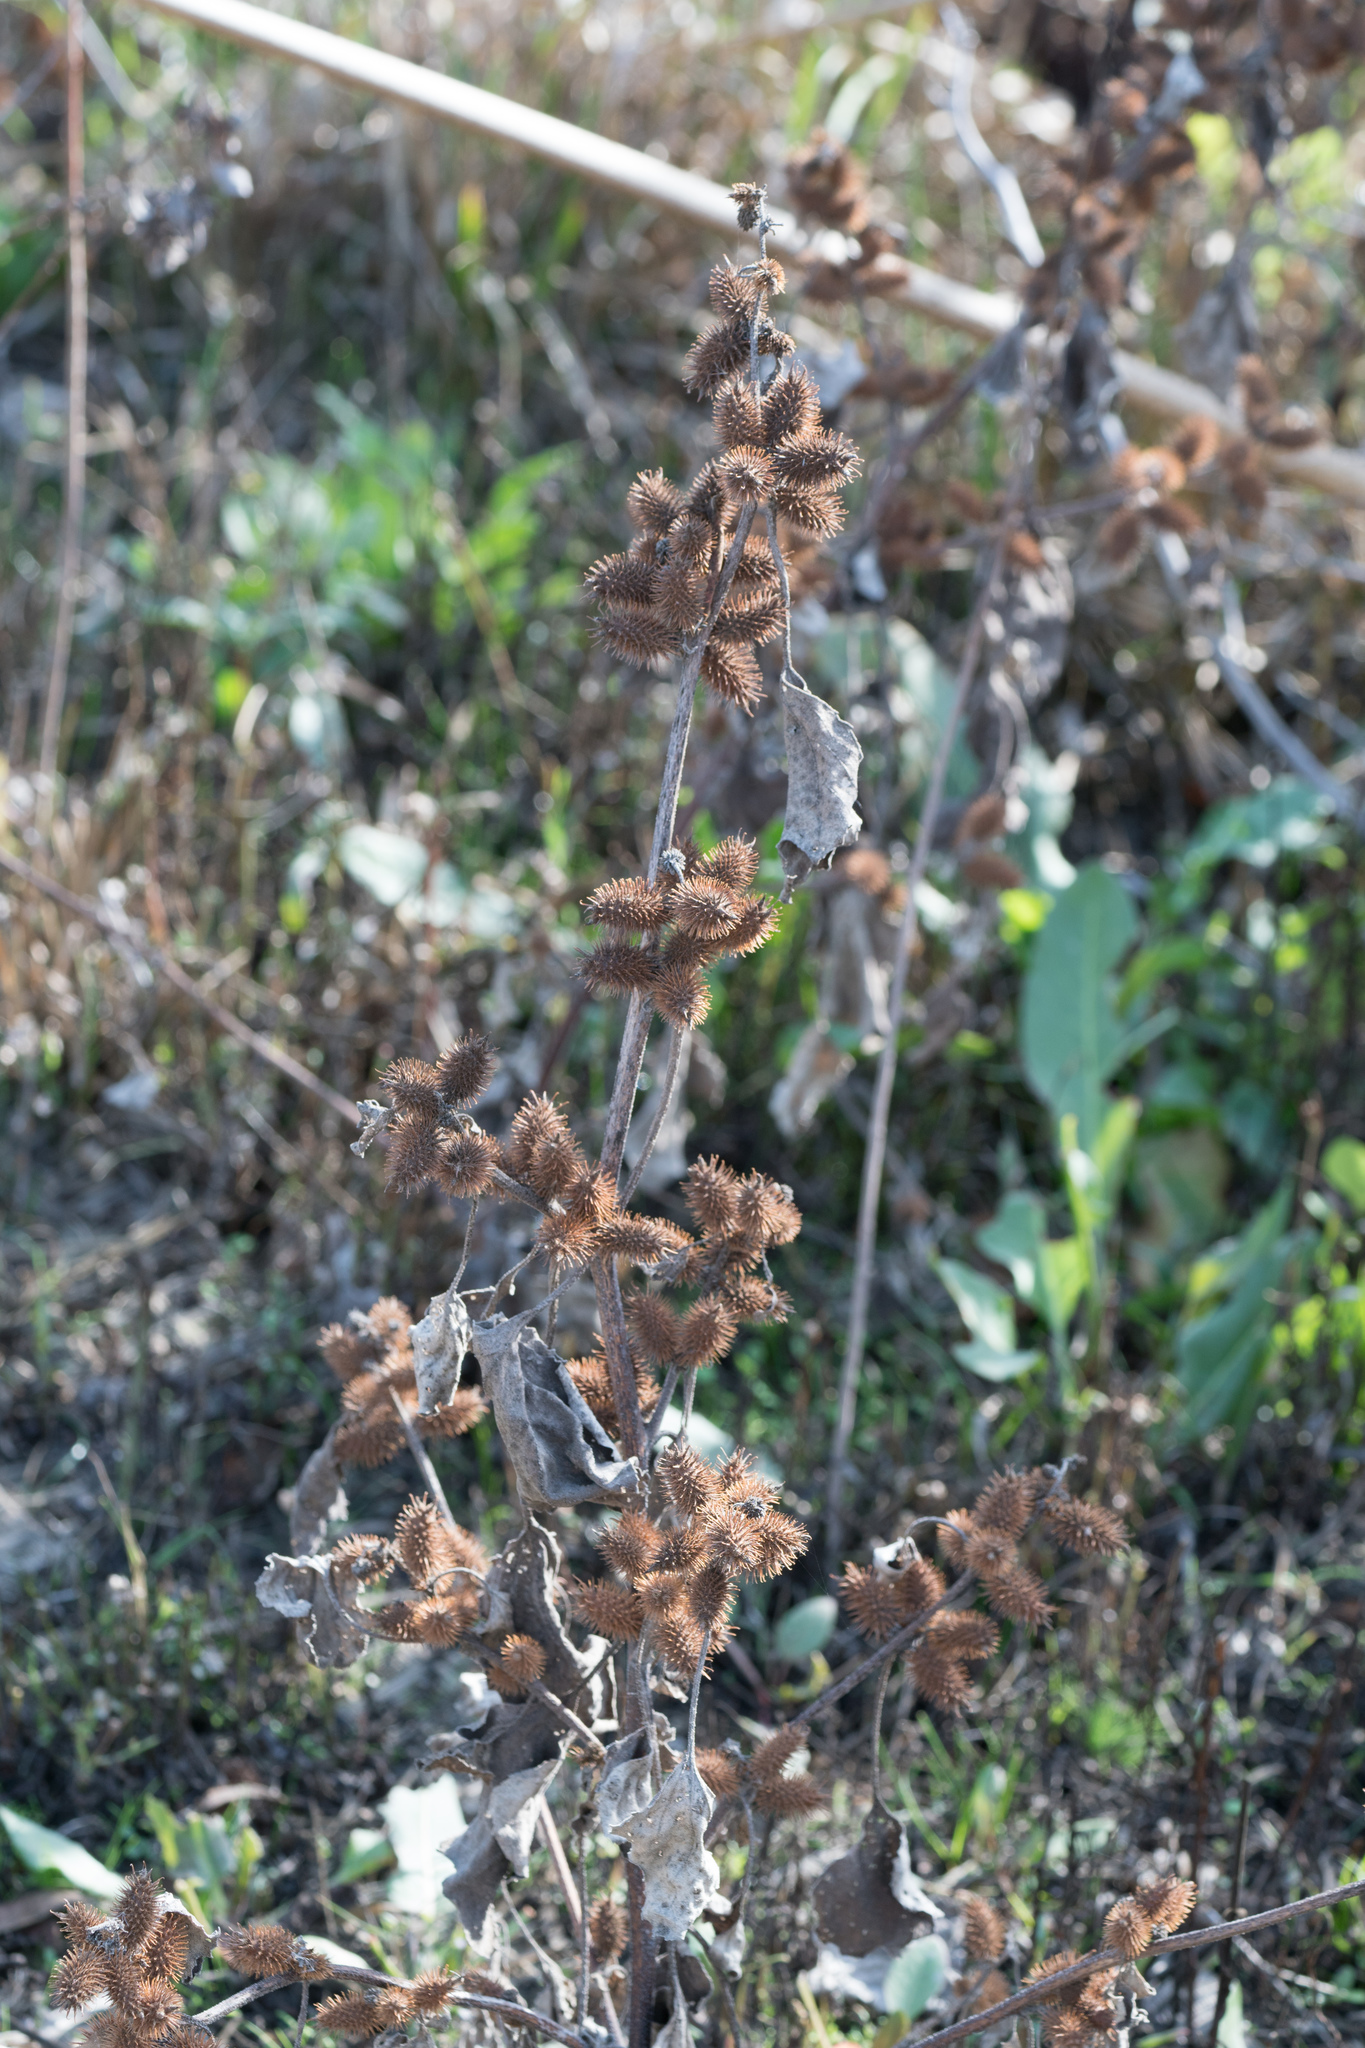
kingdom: Plantae
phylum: Tracheophyta
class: Magnoliopsida
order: Asterales
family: Asteraceae
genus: Xanthium
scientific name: Xanthium strumarium
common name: Rough cocklebur
